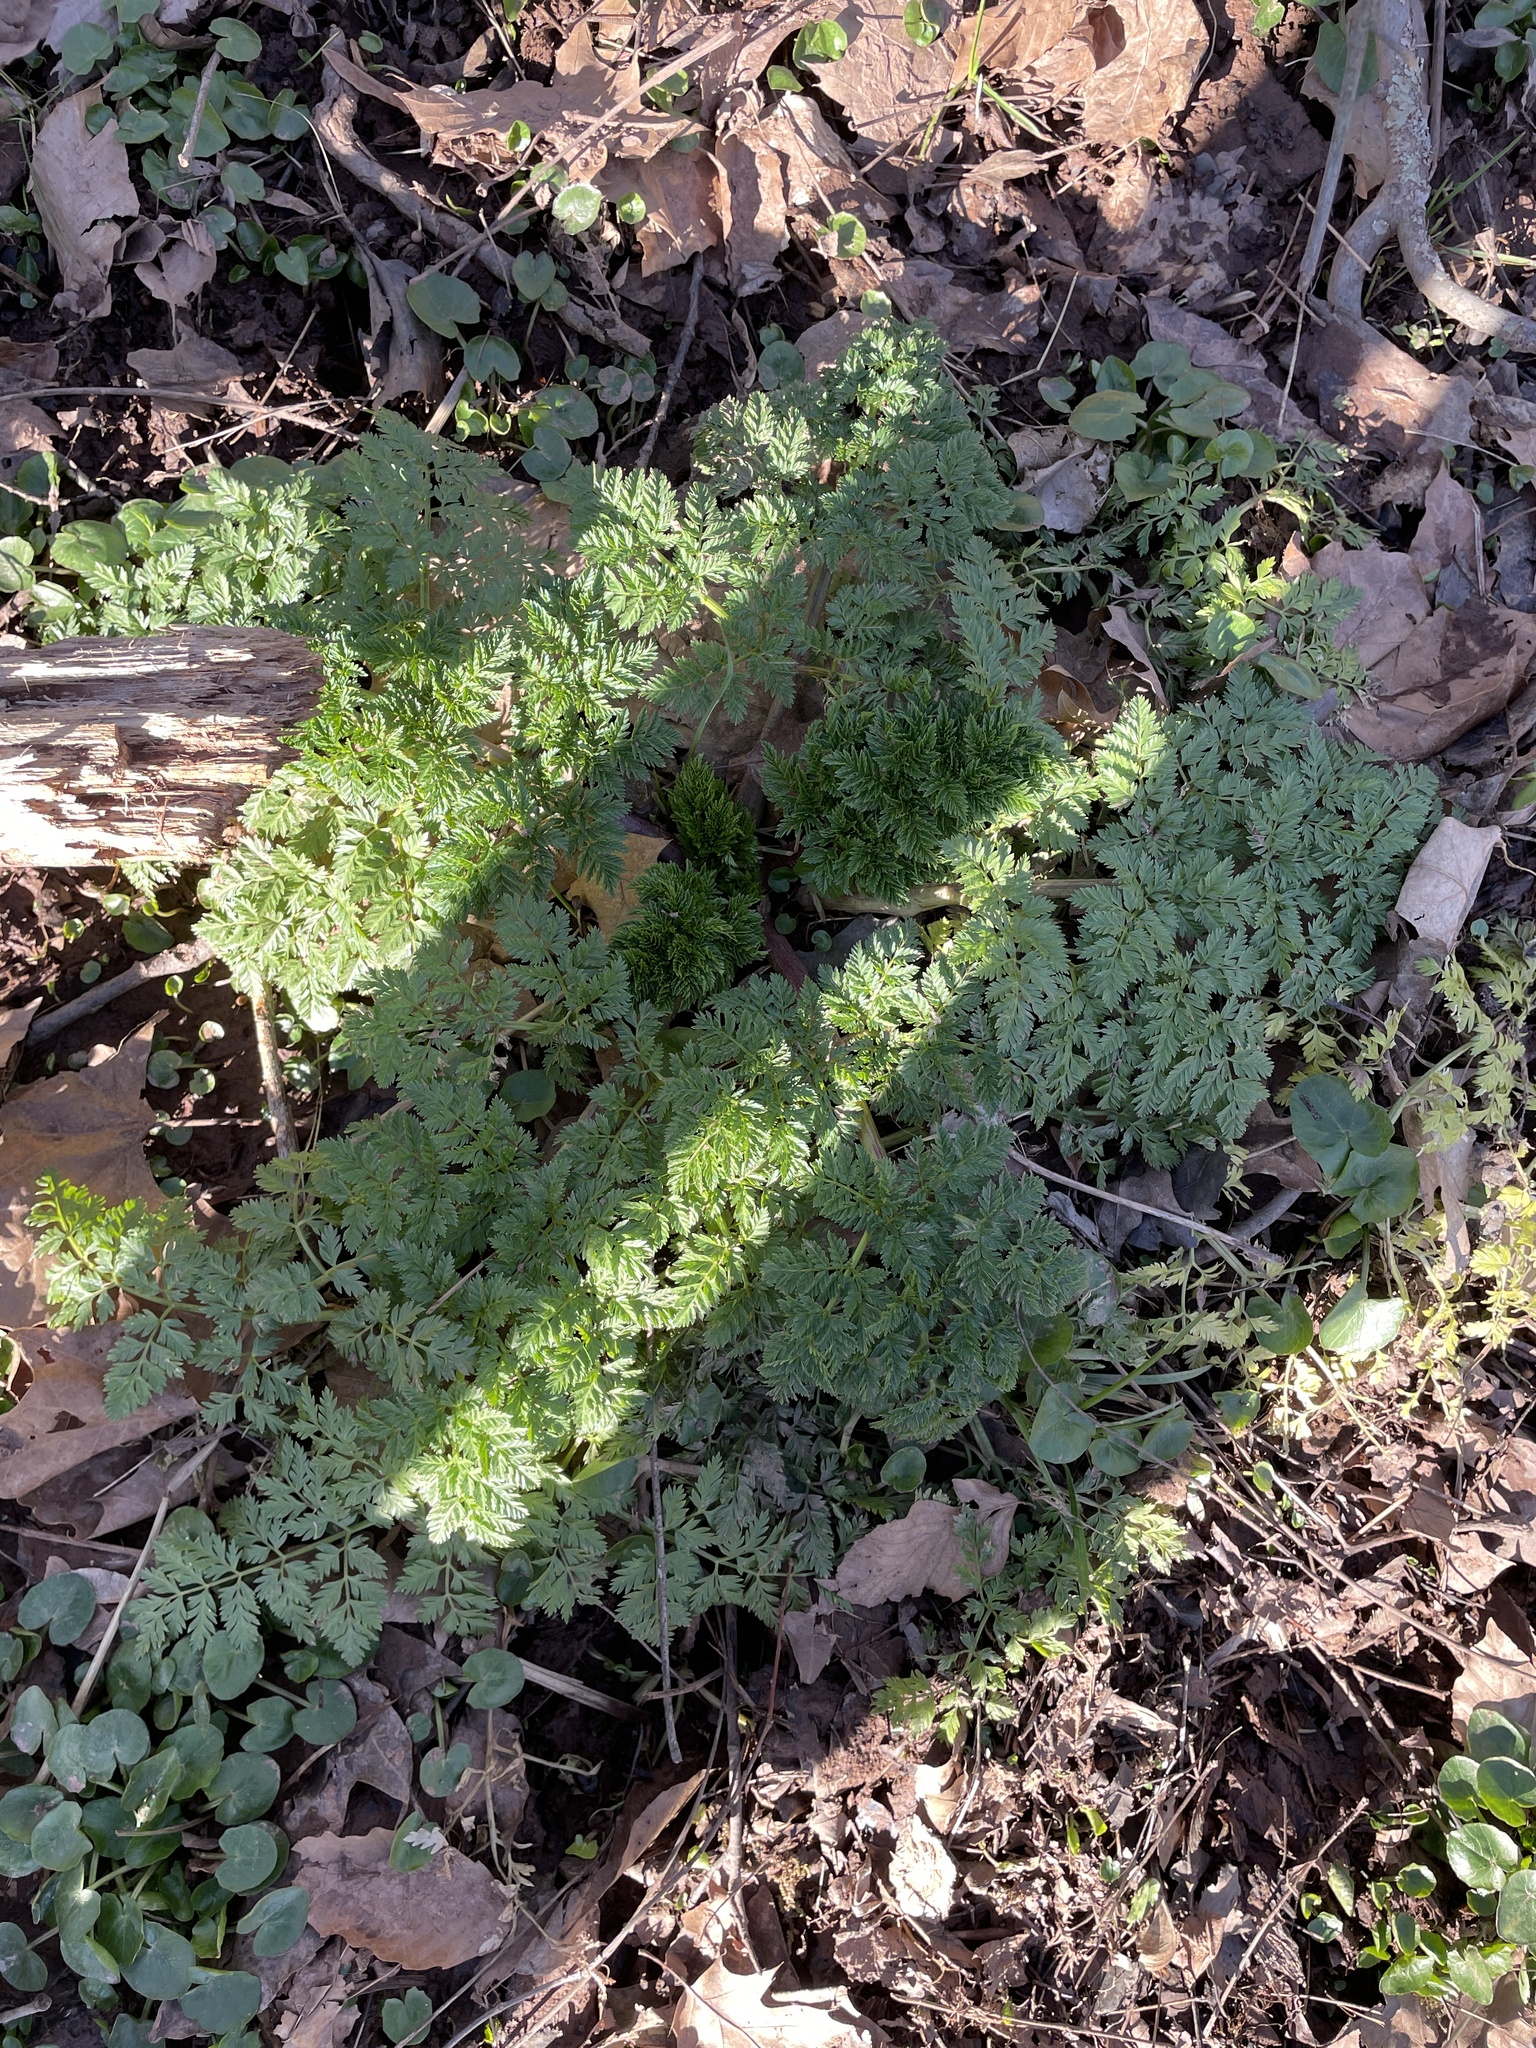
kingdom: Plantae
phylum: Tracheophyta
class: Magnoliopsida
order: Apiales
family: Apiaceae
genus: Conium
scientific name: Conium maculatum
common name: Hemlock
